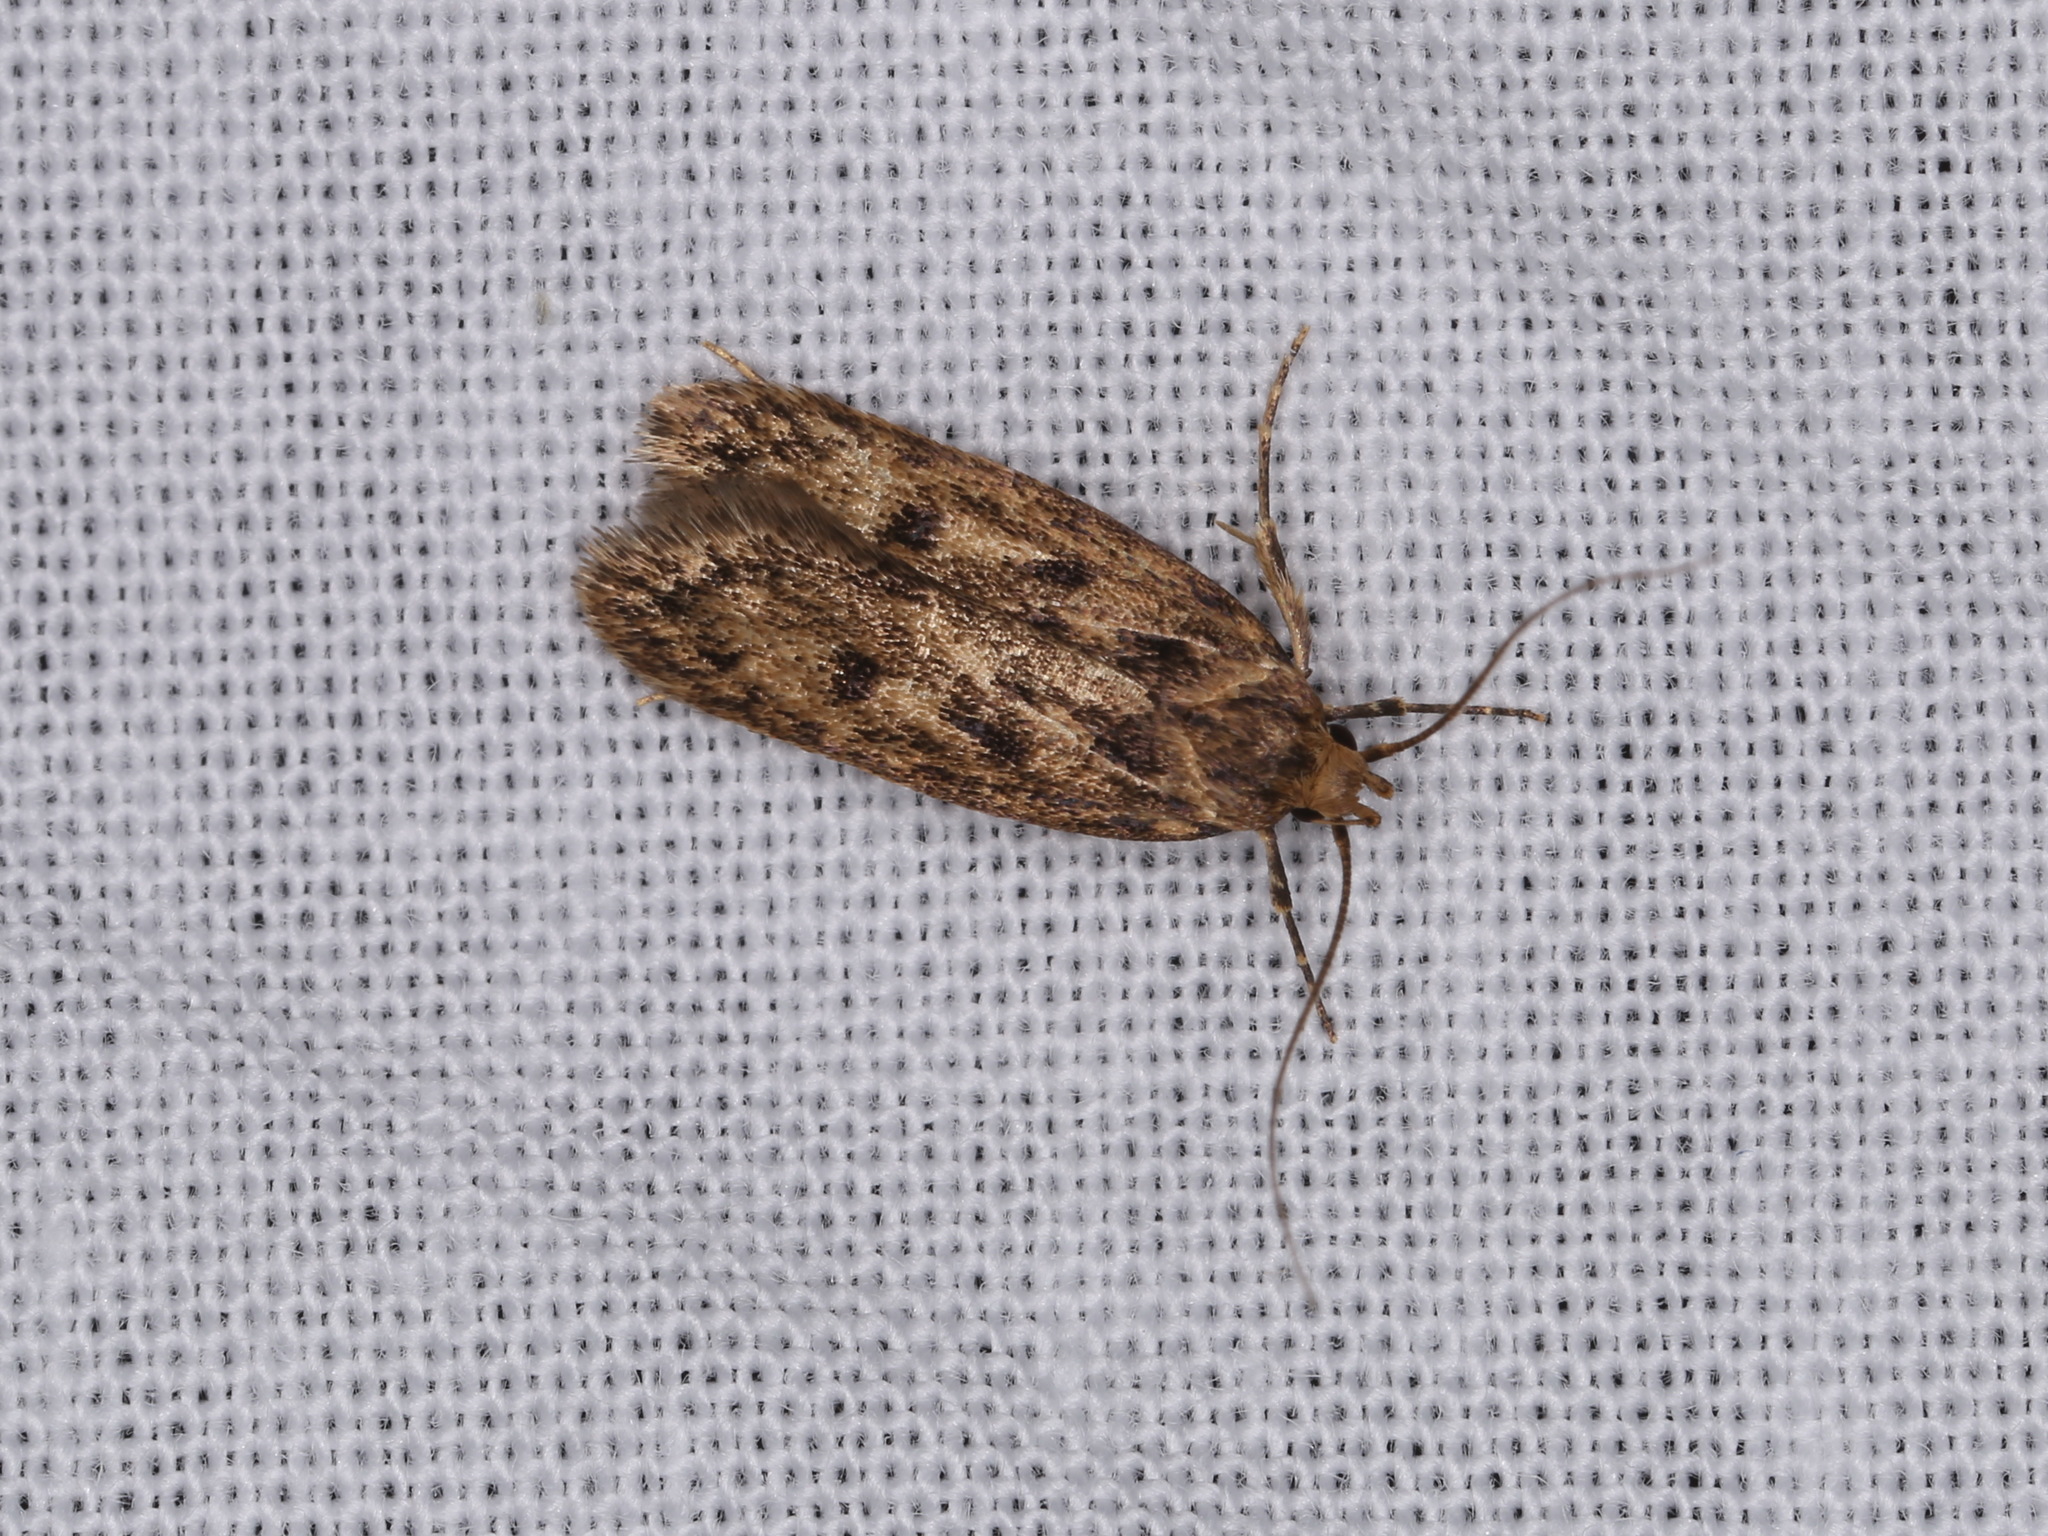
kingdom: Animalia
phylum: Arthropoda
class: Insecta
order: Lepidoptera
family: Oecophoridae
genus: Hofmannophila
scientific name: Hofmannophila pseudospretella
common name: Brown house moth
